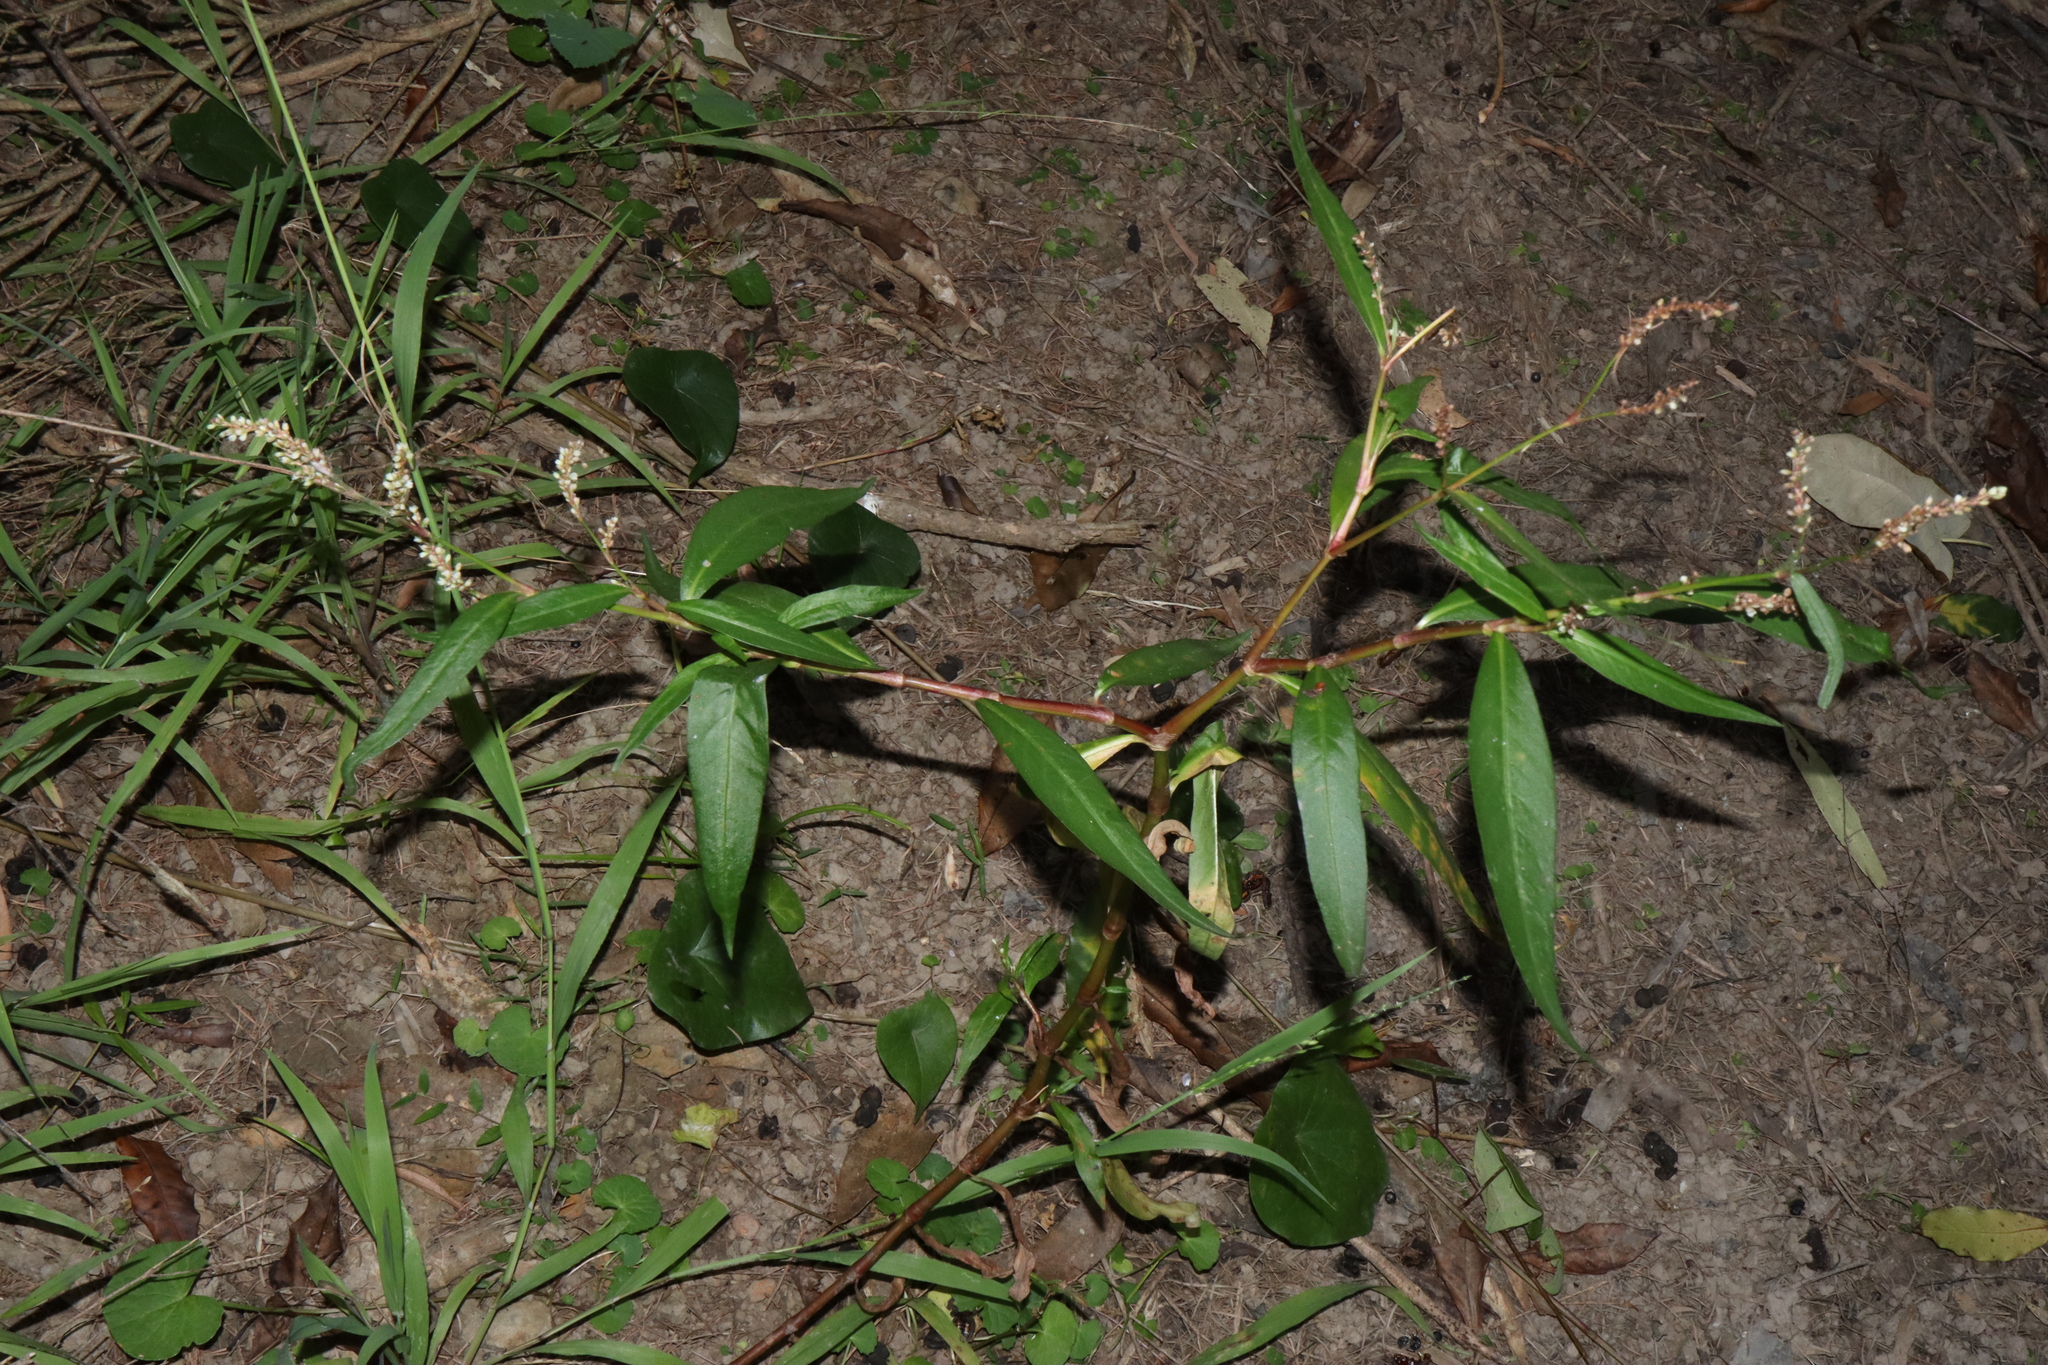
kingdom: Plantae
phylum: Tracheophyta
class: Magnoliopsida
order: Caryophyllales
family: Polygonaceae
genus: Persicaria
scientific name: Persicaria lapathifolia
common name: Curlytop knotweed
